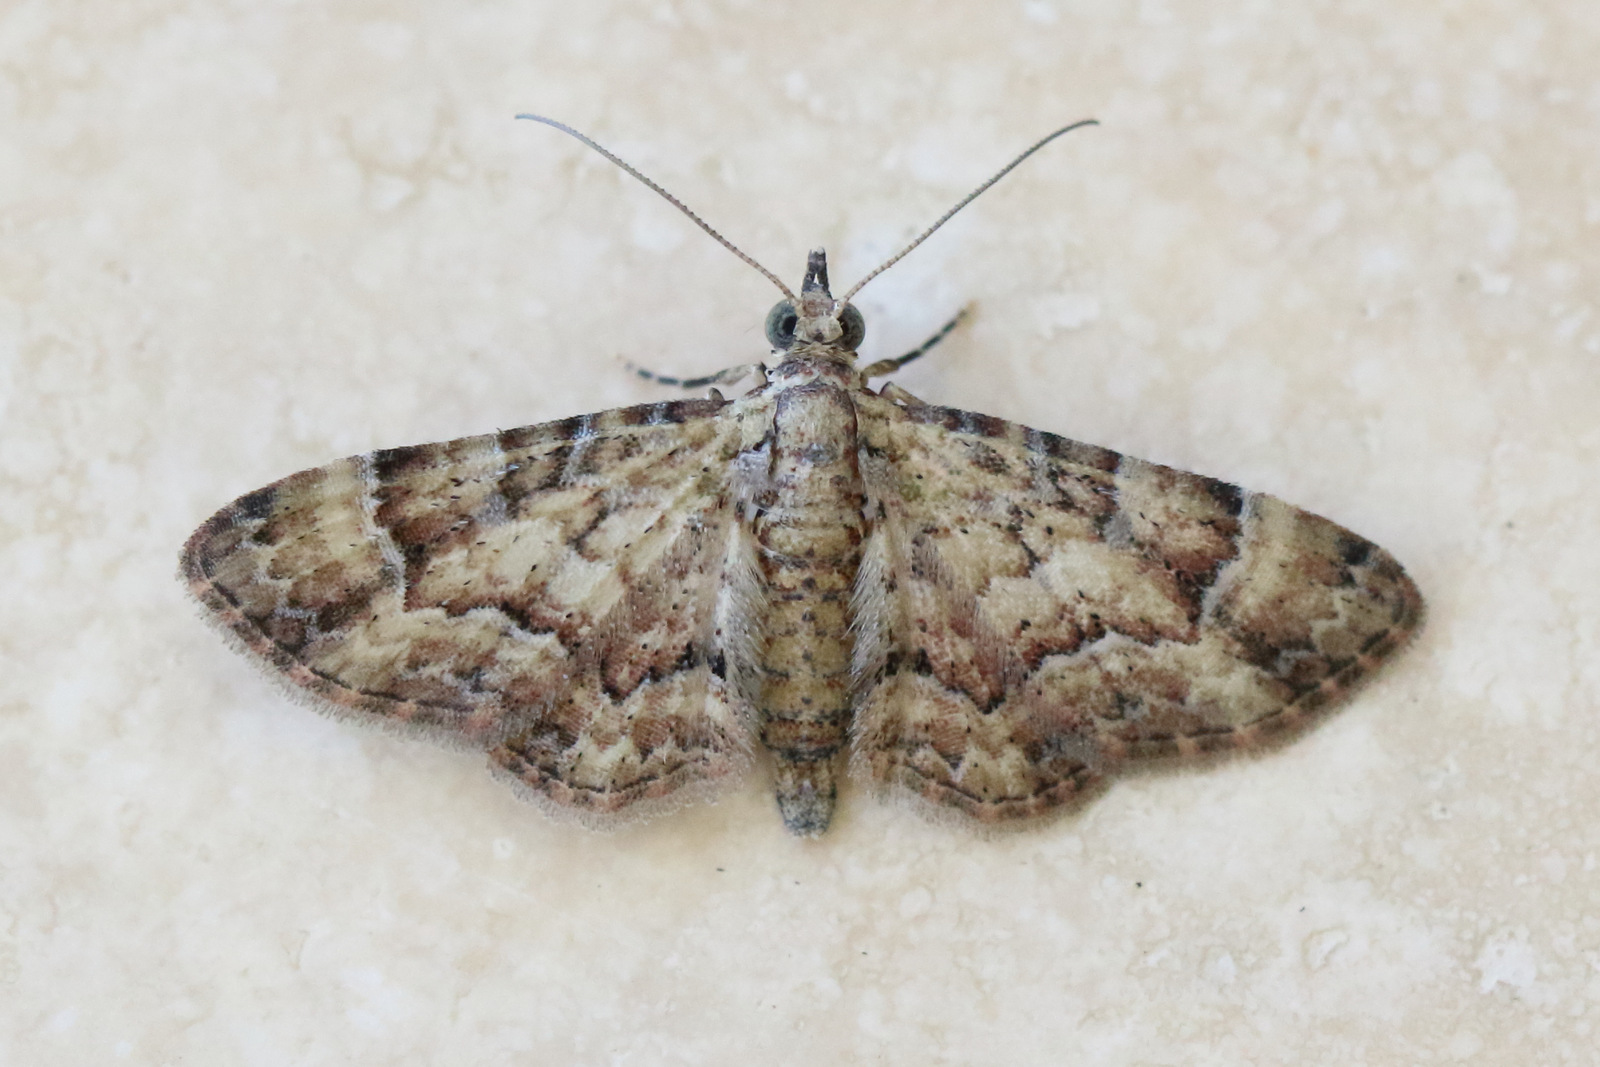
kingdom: Animalia
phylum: Arthropoda
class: Insecta
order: Lepidoptera
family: Geometridae
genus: Gymnoscelis
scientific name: Gymnoscelis lophopus
